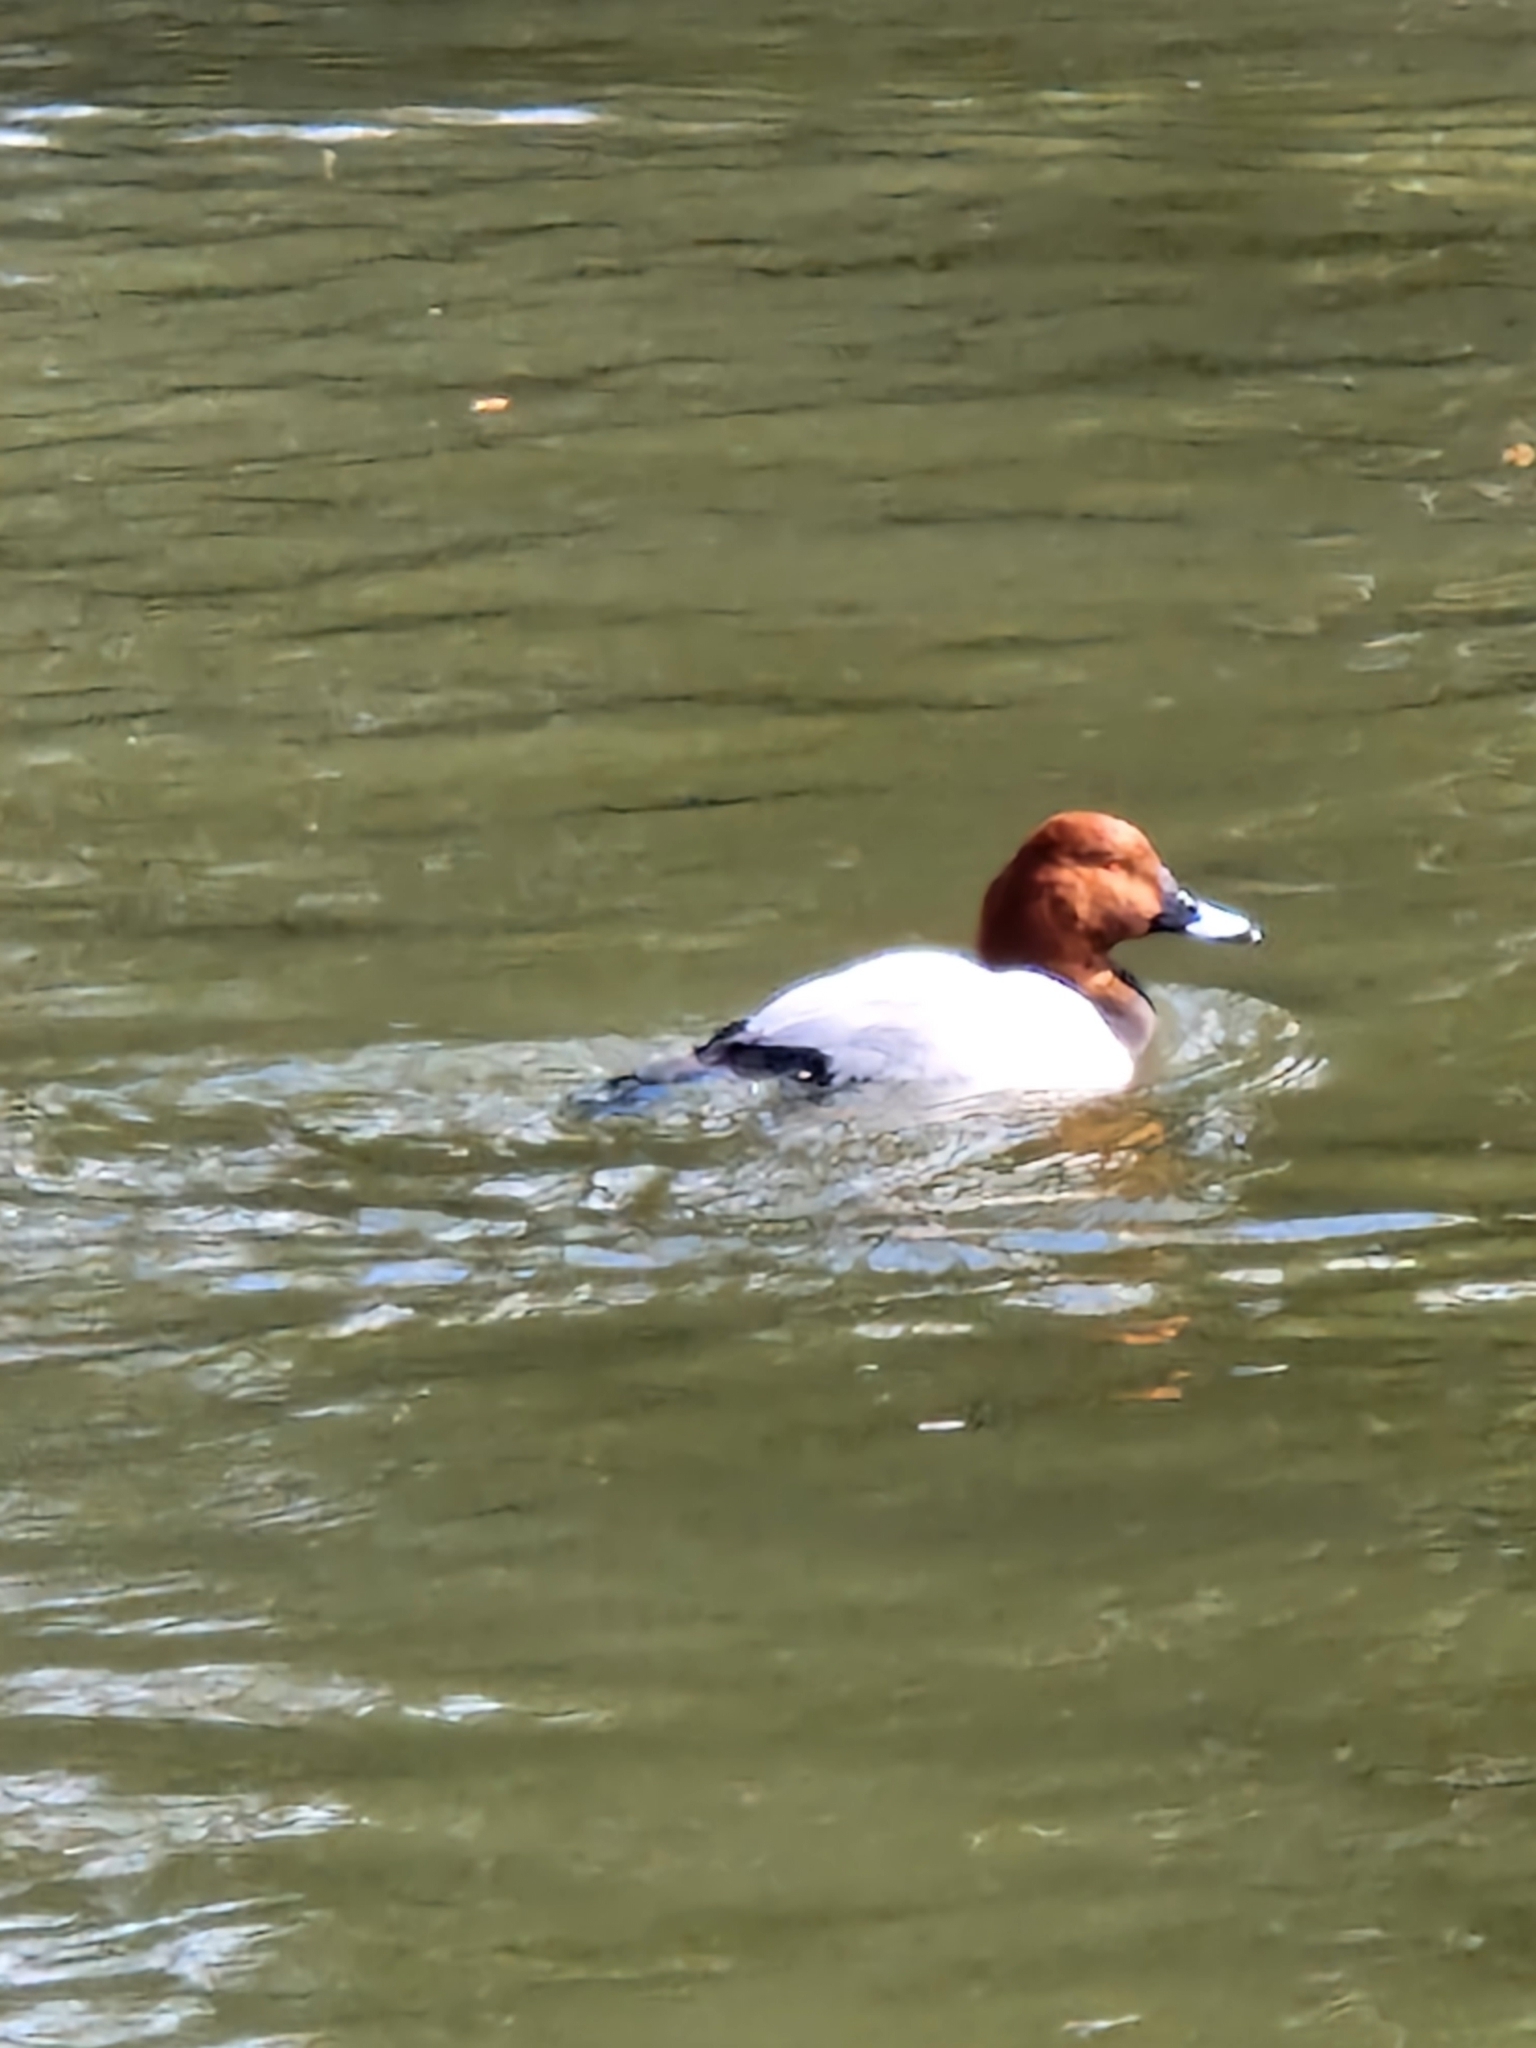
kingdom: Animalia
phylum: Chordata
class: Aves
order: Anseriformes
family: Anatidae
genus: Aythya
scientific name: Aythya ferina
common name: Common pochard
